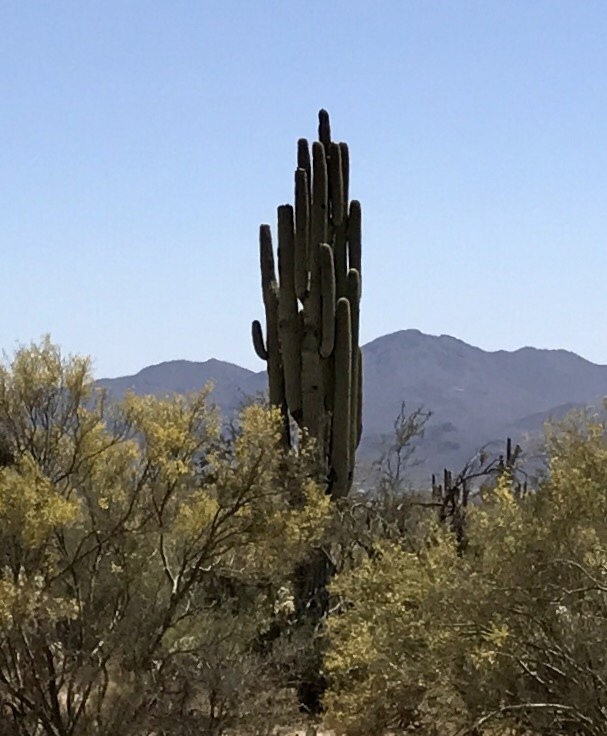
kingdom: Plantae
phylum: Tracheophyta
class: Magnoliopsida
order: Caryophyllales
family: Cactaceae
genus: Carnegiea
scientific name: Carnegiea gigantea
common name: Saguaro
